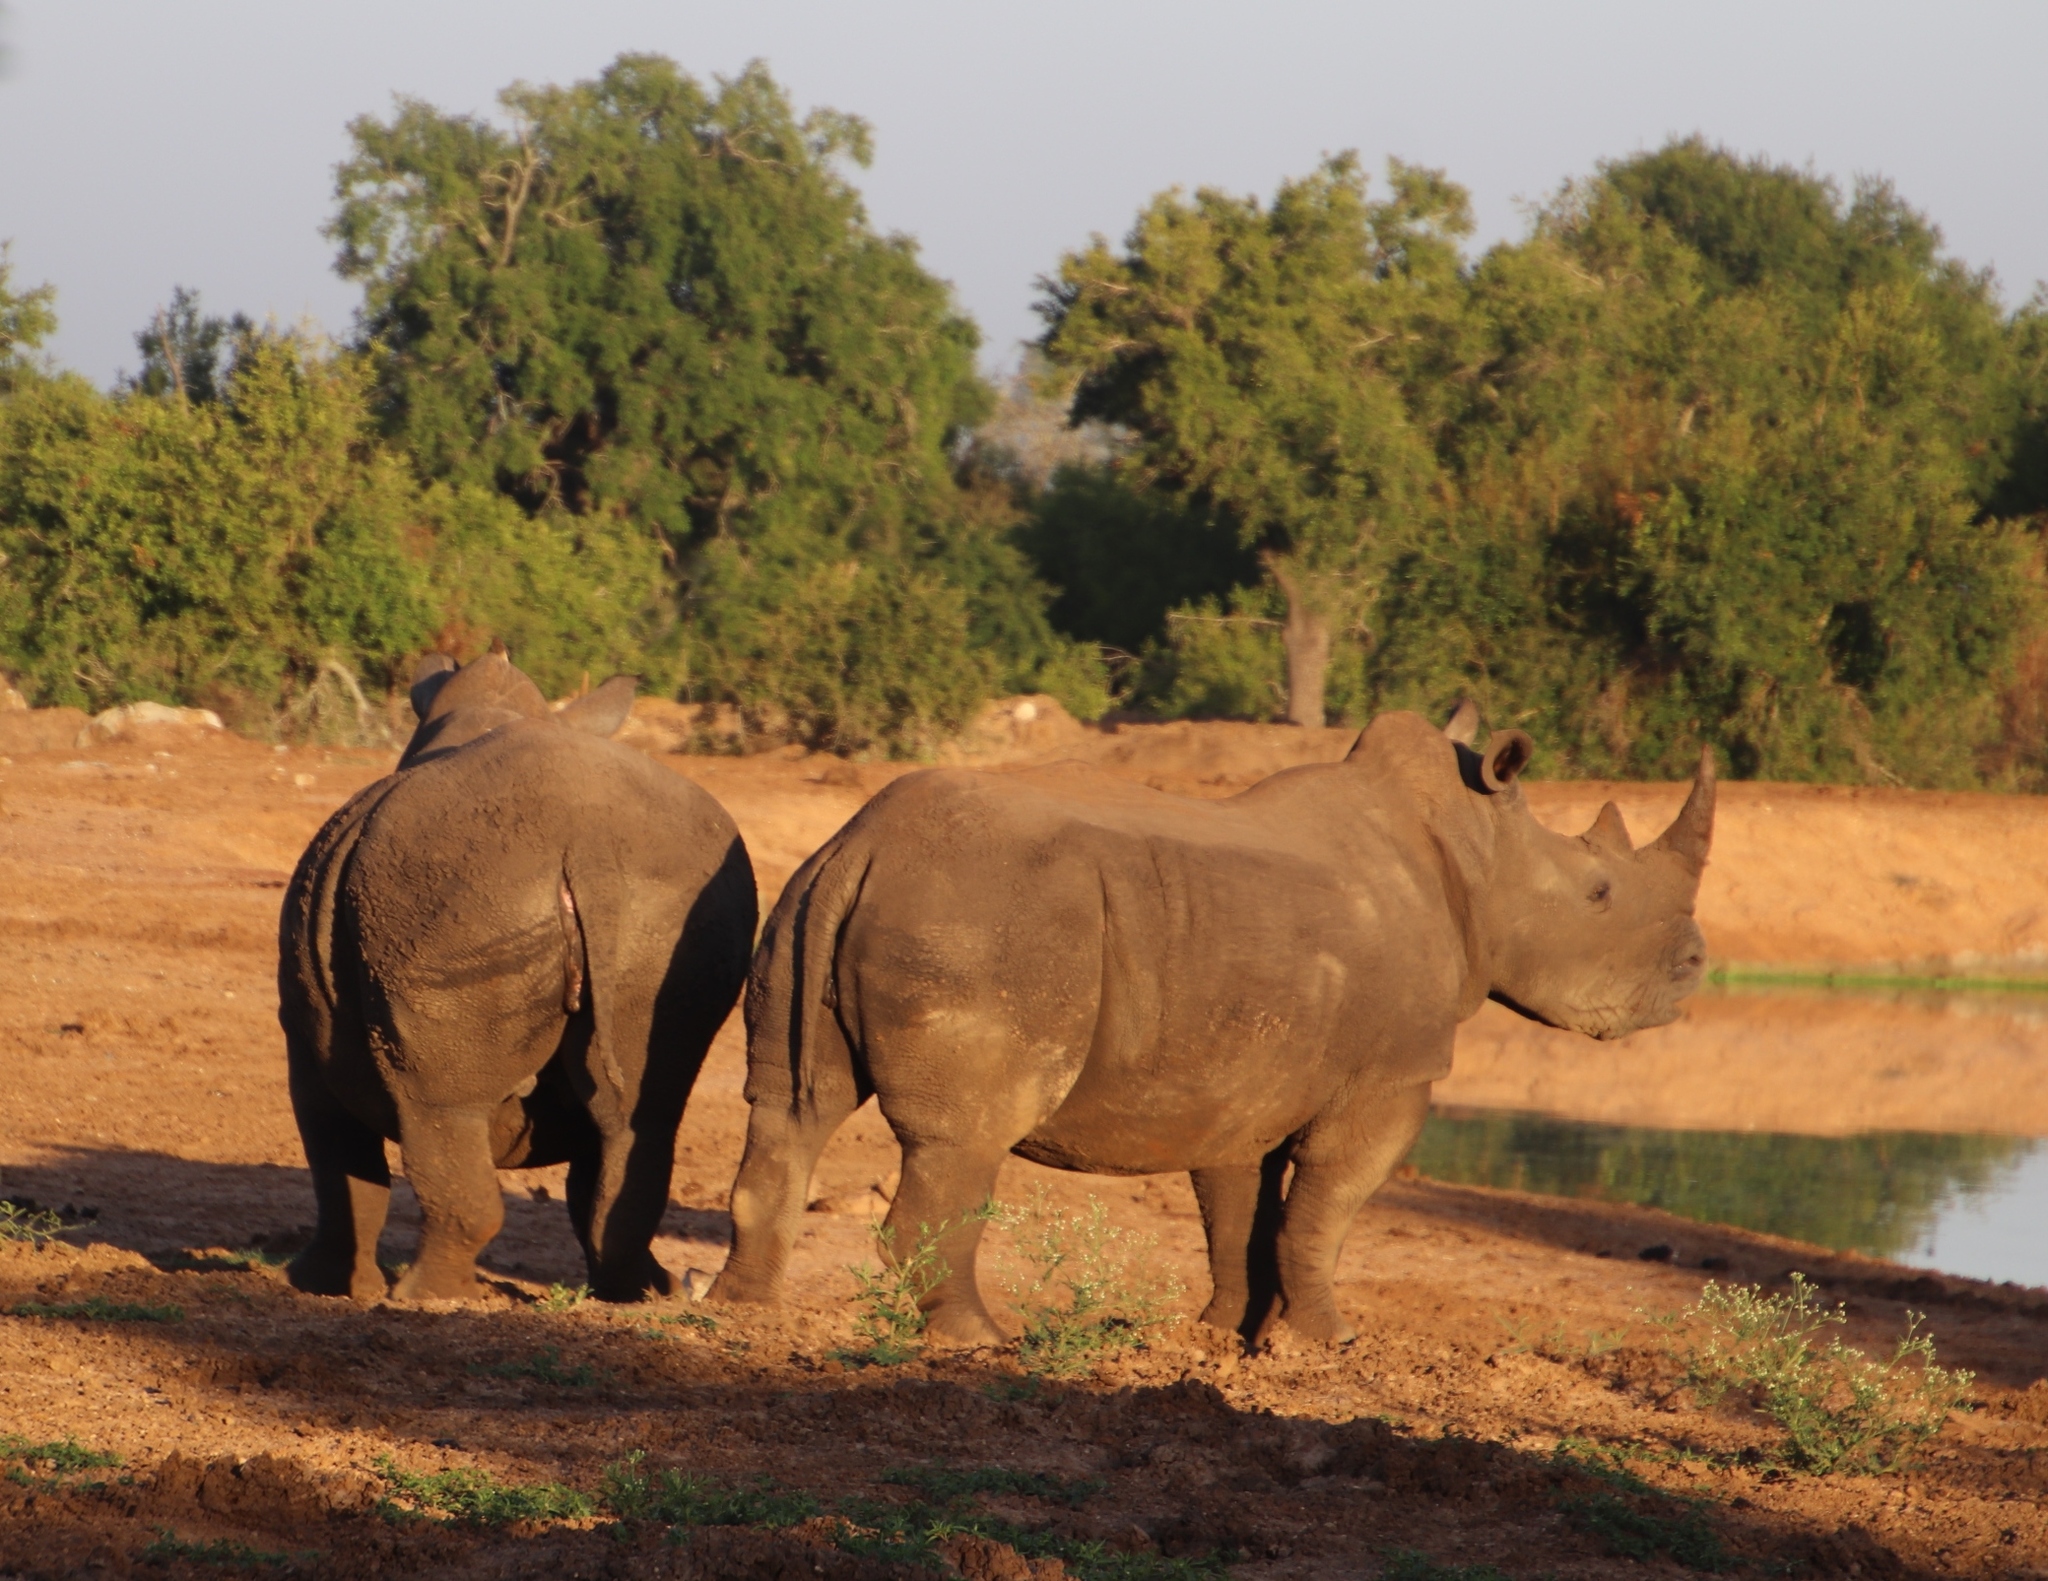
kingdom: Animalia
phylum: Chordata
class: Mammalia
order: Perissodactyla
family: Rhinocerotidae
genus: Ceratotherium
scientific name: Ceratotherium simum
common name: White rhinoceros
